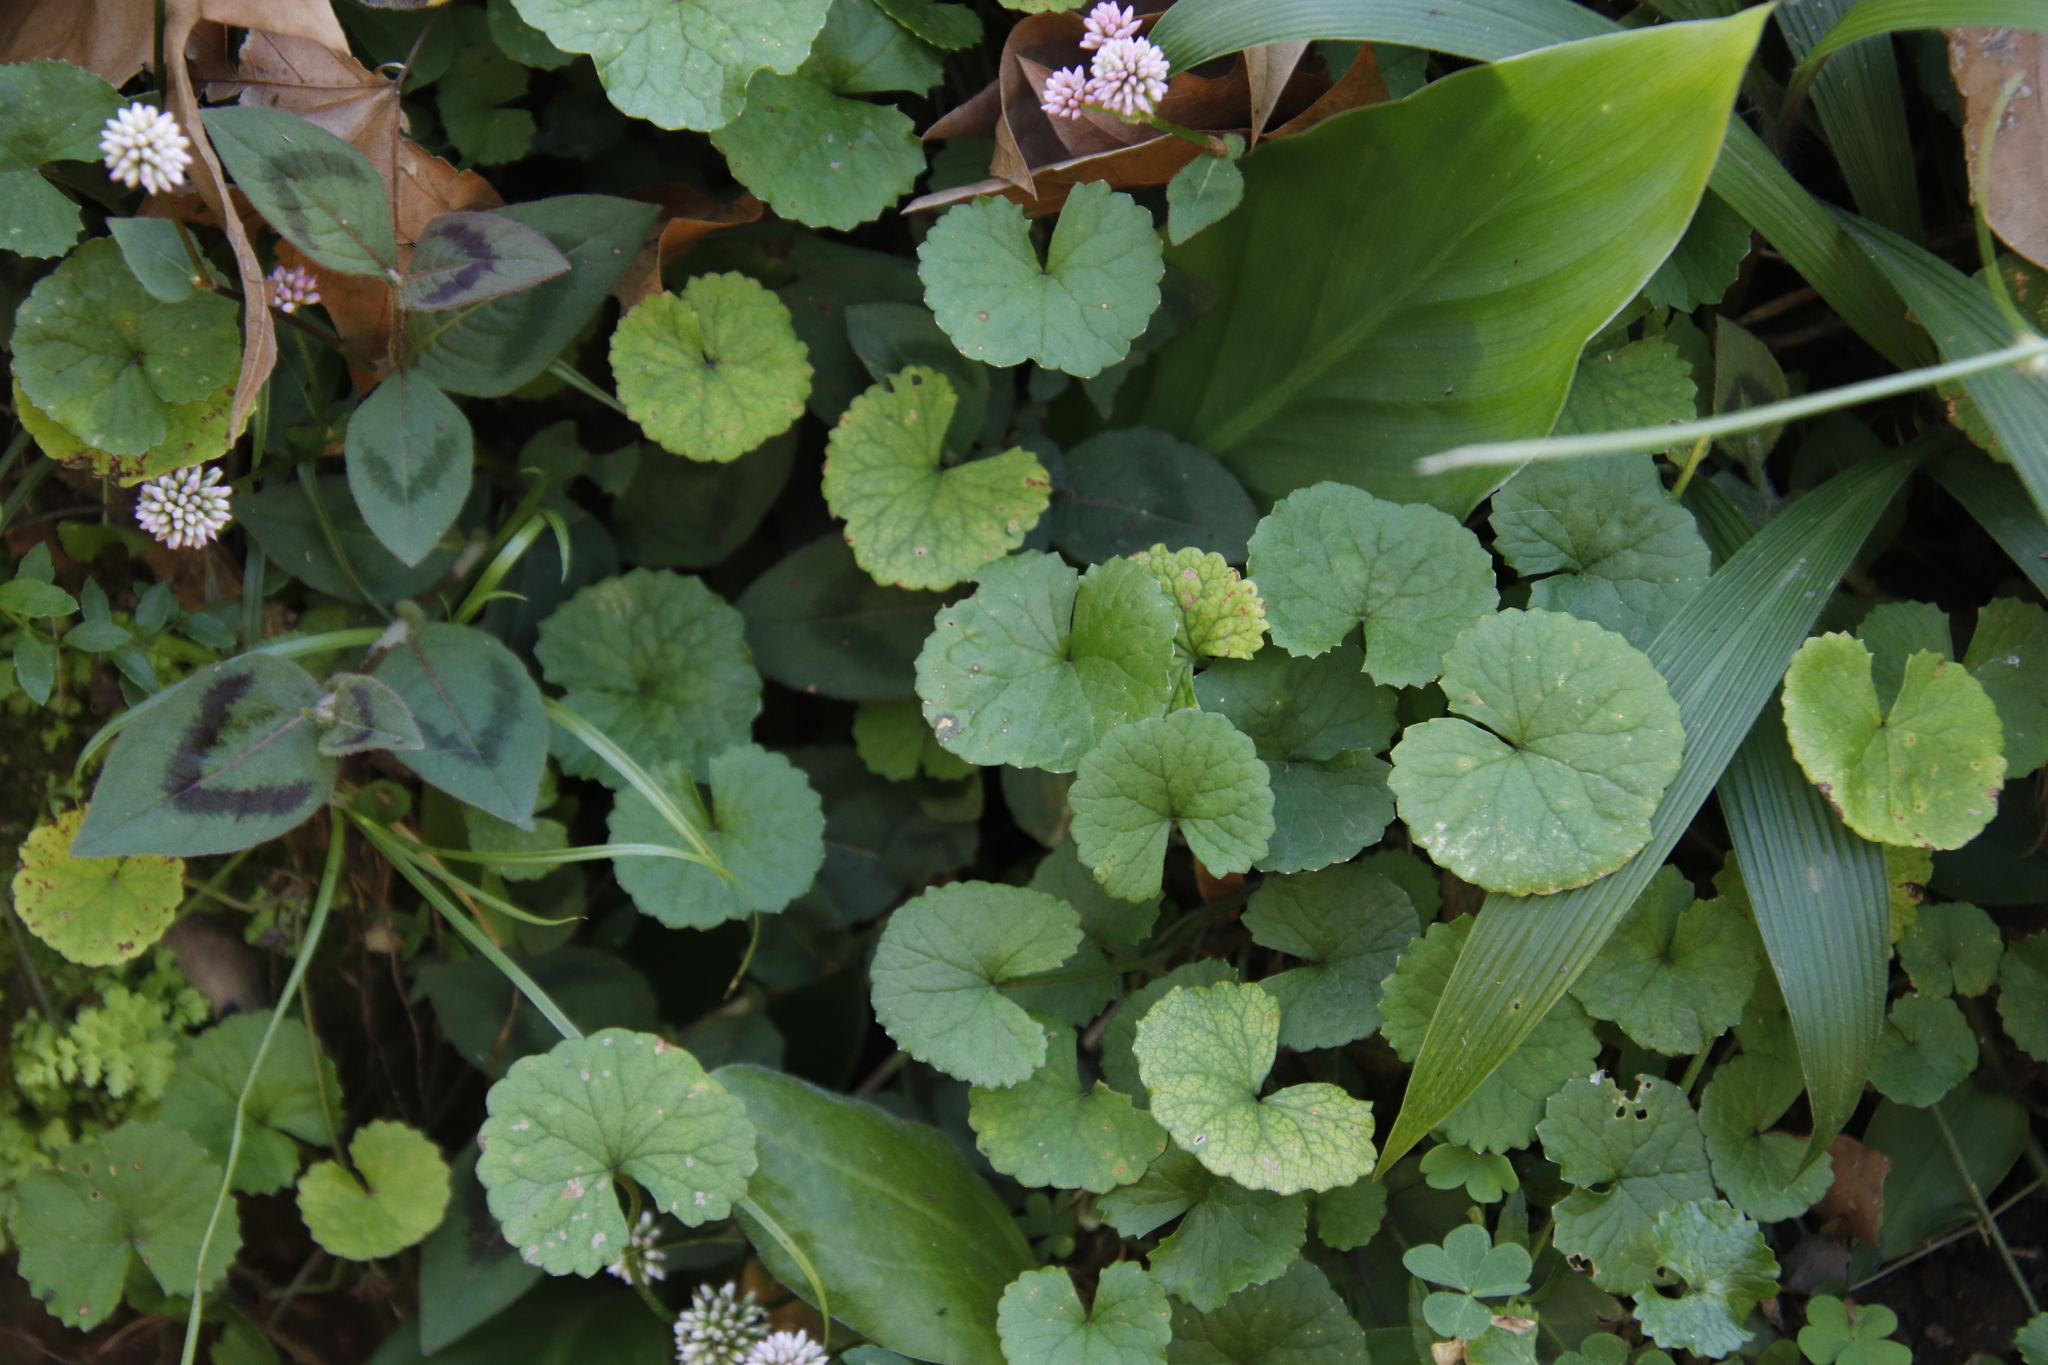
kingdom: Plantae
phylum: Tracheophyta
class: Magnoliopsida
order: Apiales
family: Apiaceae
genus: Centella
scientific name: Centella asiatica
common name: Spadeleaf
